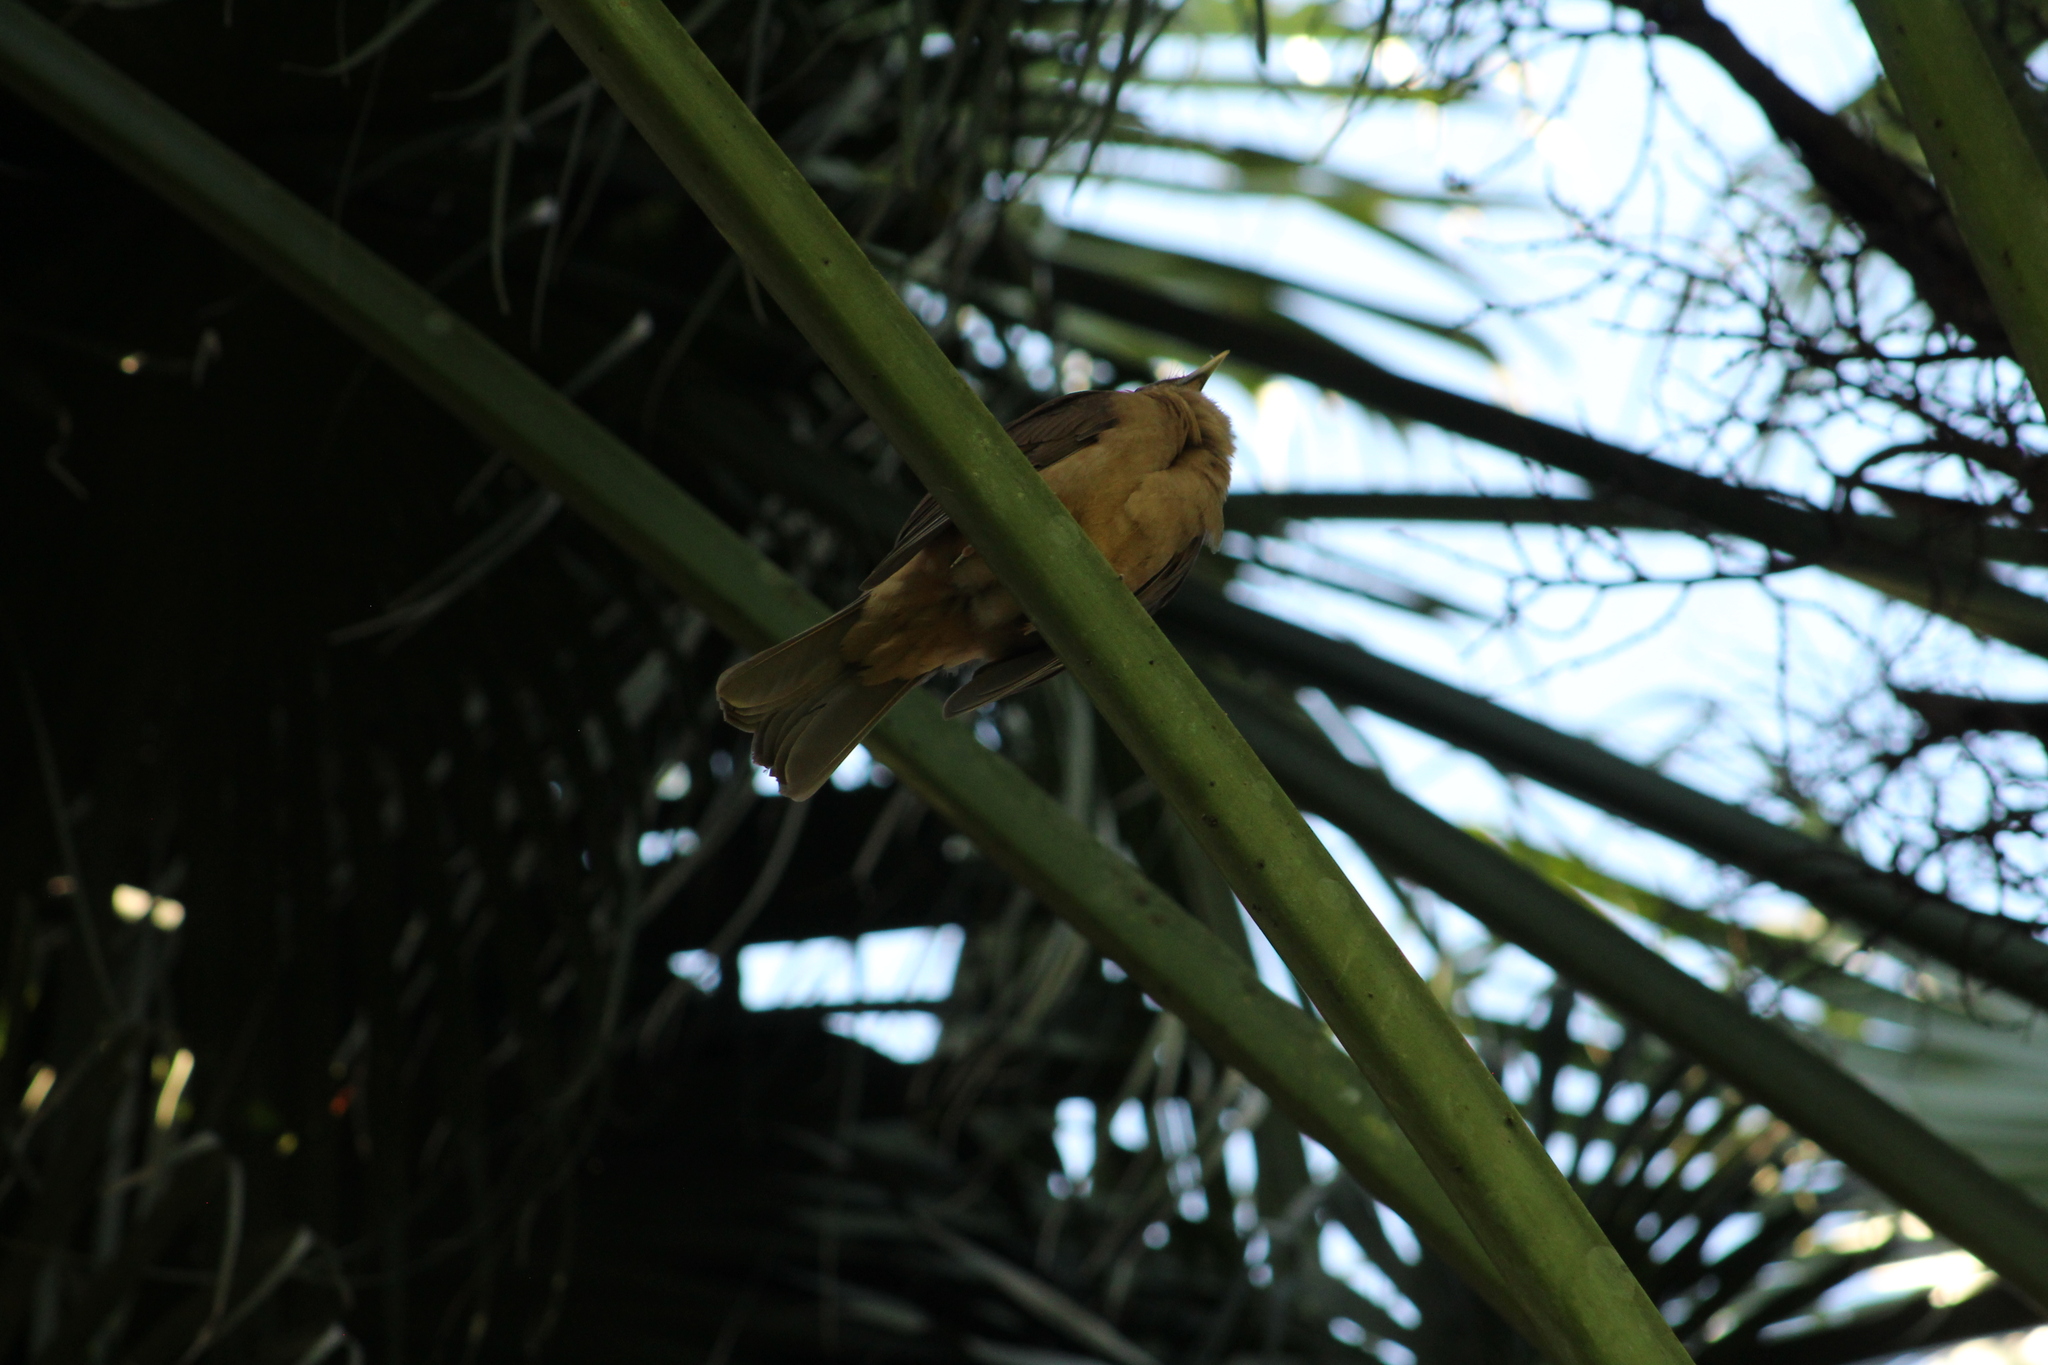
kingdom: Animalia
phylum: Chordata
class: Aves
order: Passeriformes
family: Turdidae
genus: Turdus
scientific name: Turdus grayi
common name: Clay-colored thrush
